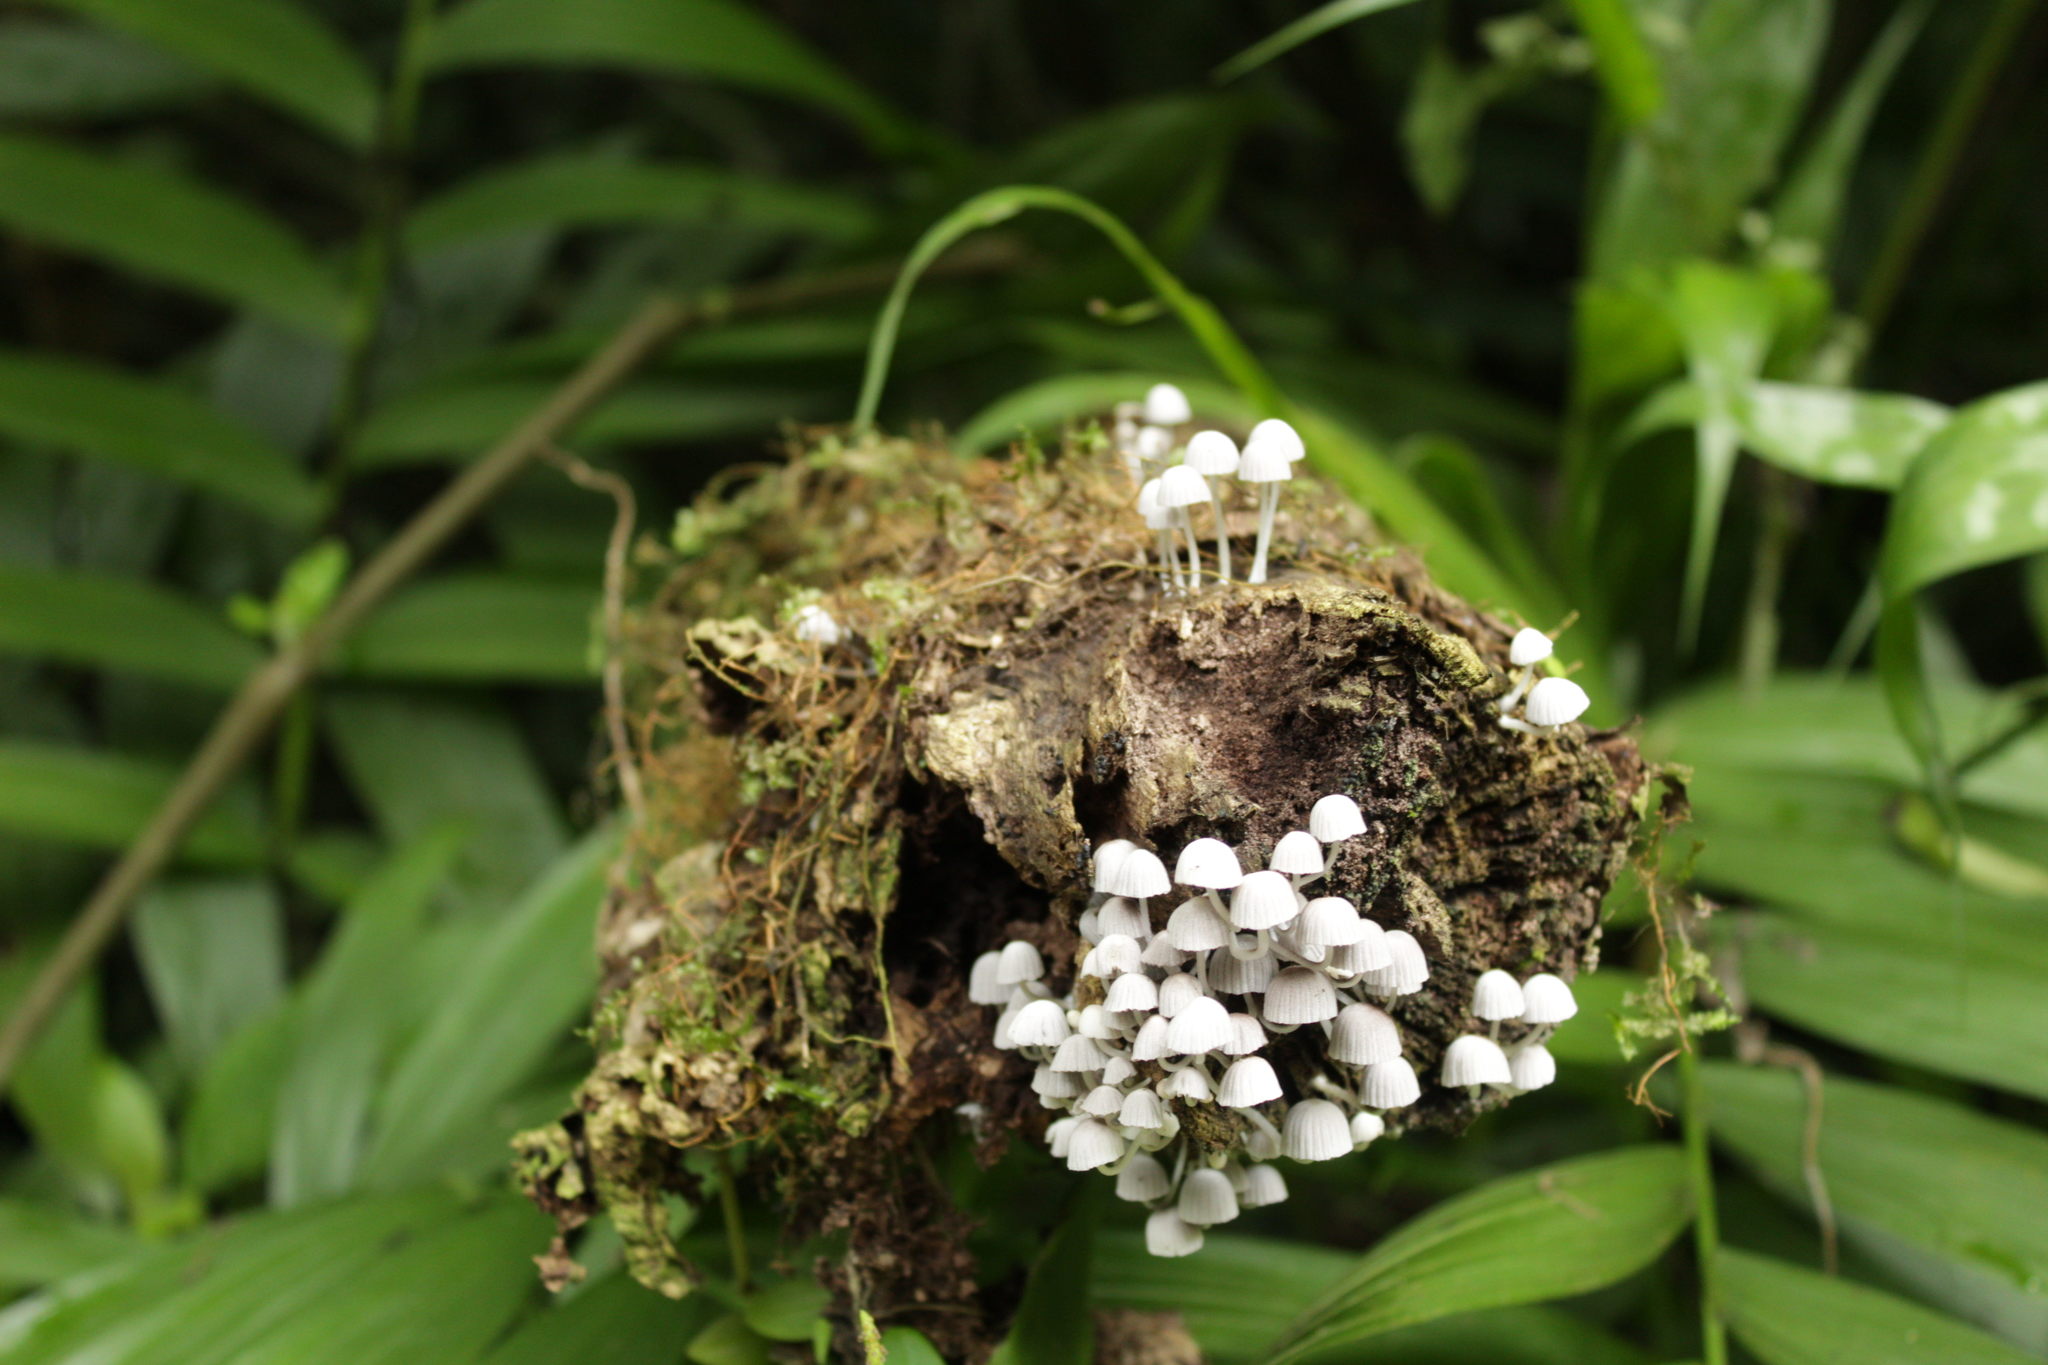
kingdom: Fungi
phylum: Basidiomycota
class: Agaricomycetes
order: Agaricales
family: Psathyrellaceae
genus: Coprinellus
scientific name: Coprinellus disseminatus
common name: Fairies' bonnets
